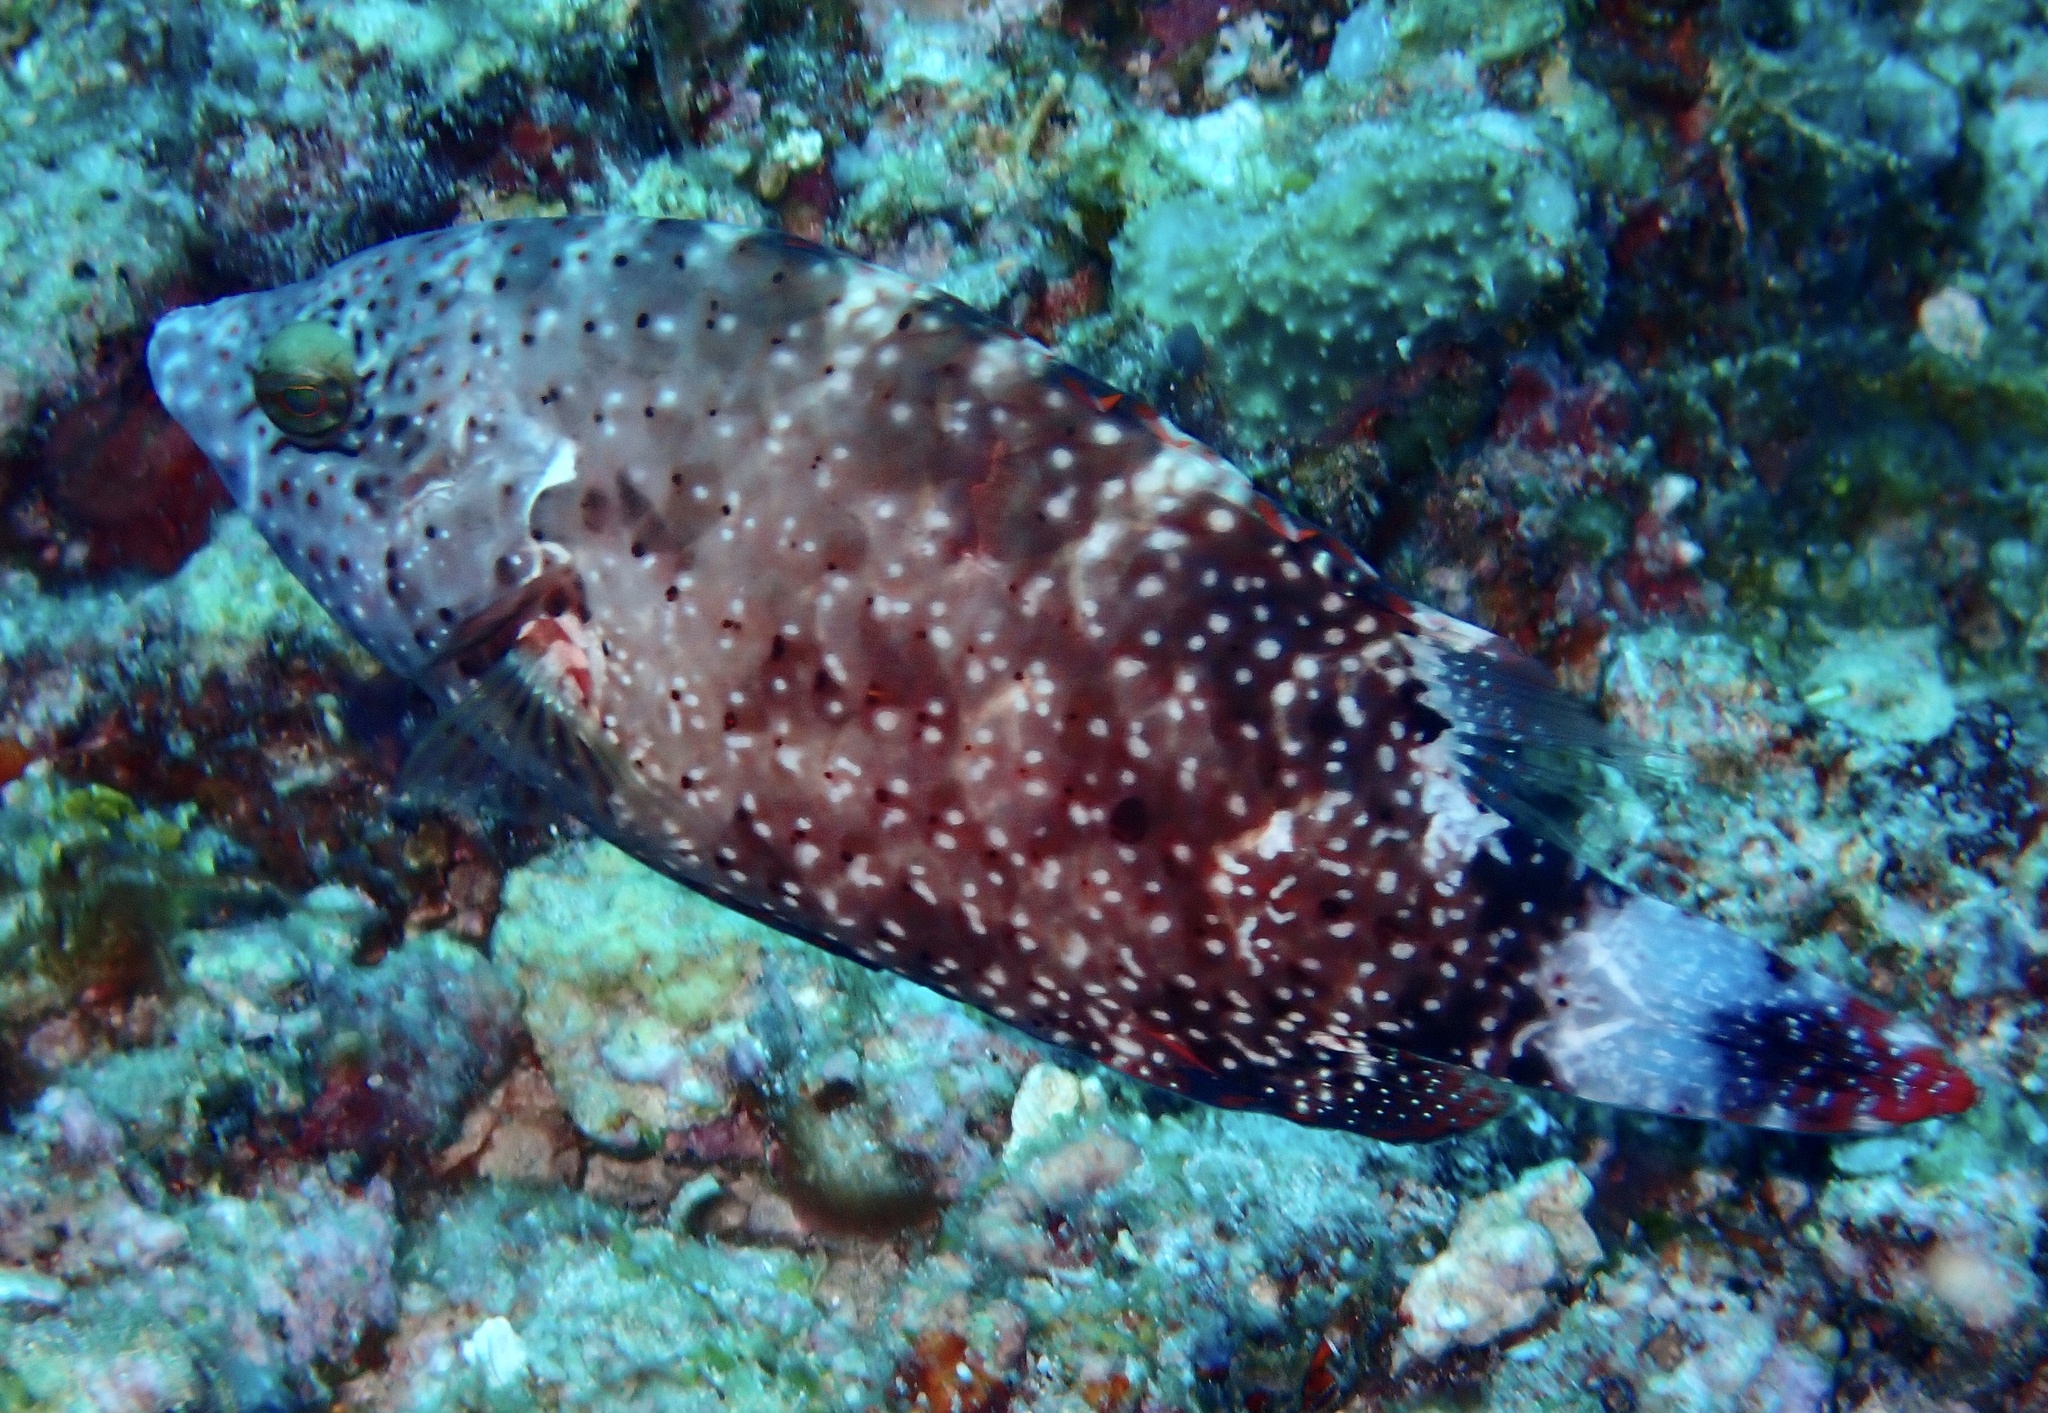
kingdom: Animalia
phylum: Chordata
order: Perciformes
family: Labridae
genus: Cheilinus
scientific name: Cheilinus chlorourus
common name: Floral wrasse
